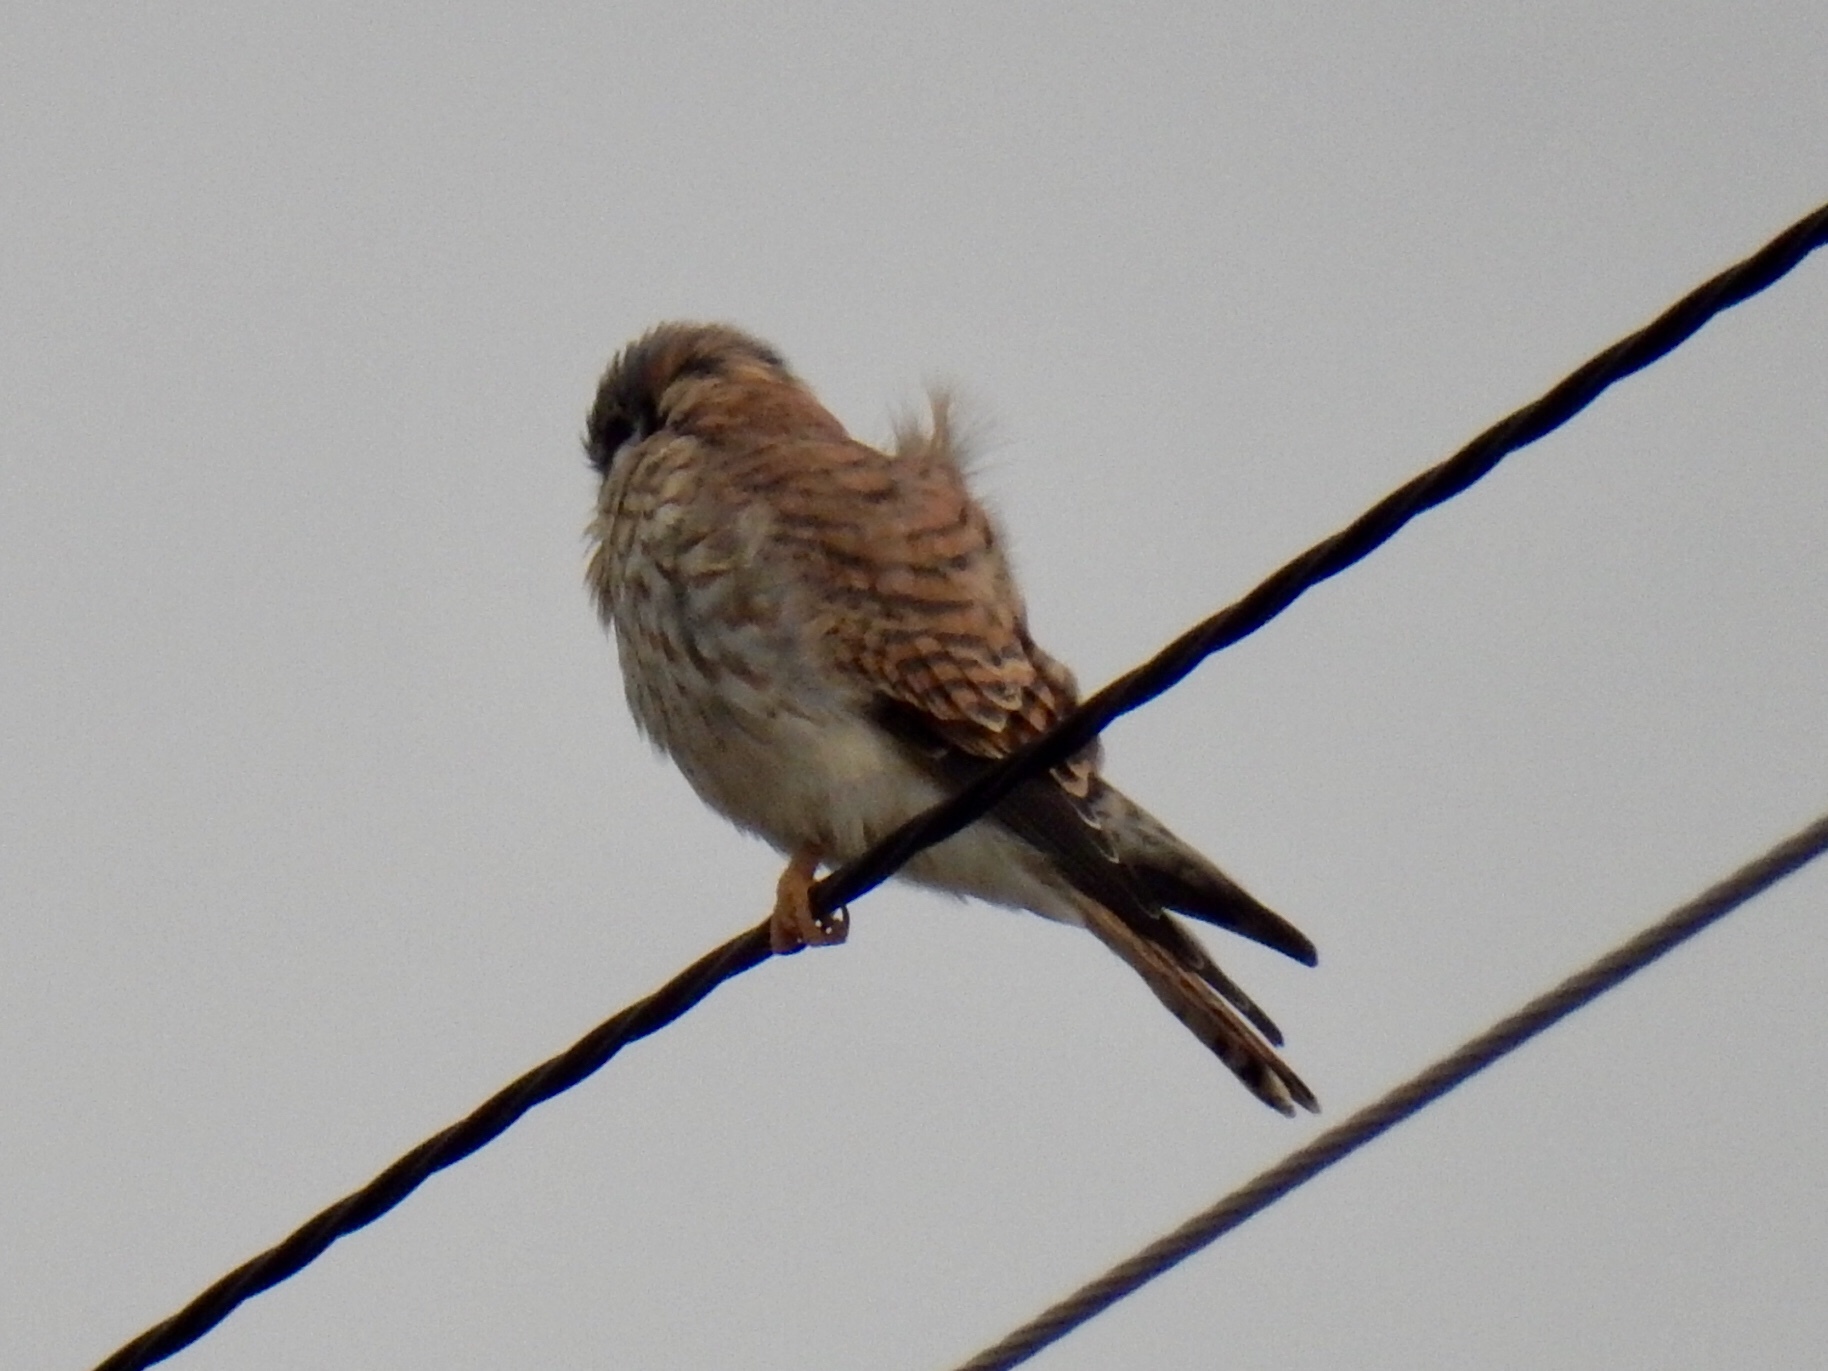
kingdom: Animalia
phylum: Chordata
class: Aves
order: Falconiformes
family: Falconidae
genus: Falco
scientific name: Falco sparverius
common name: American kestrel
